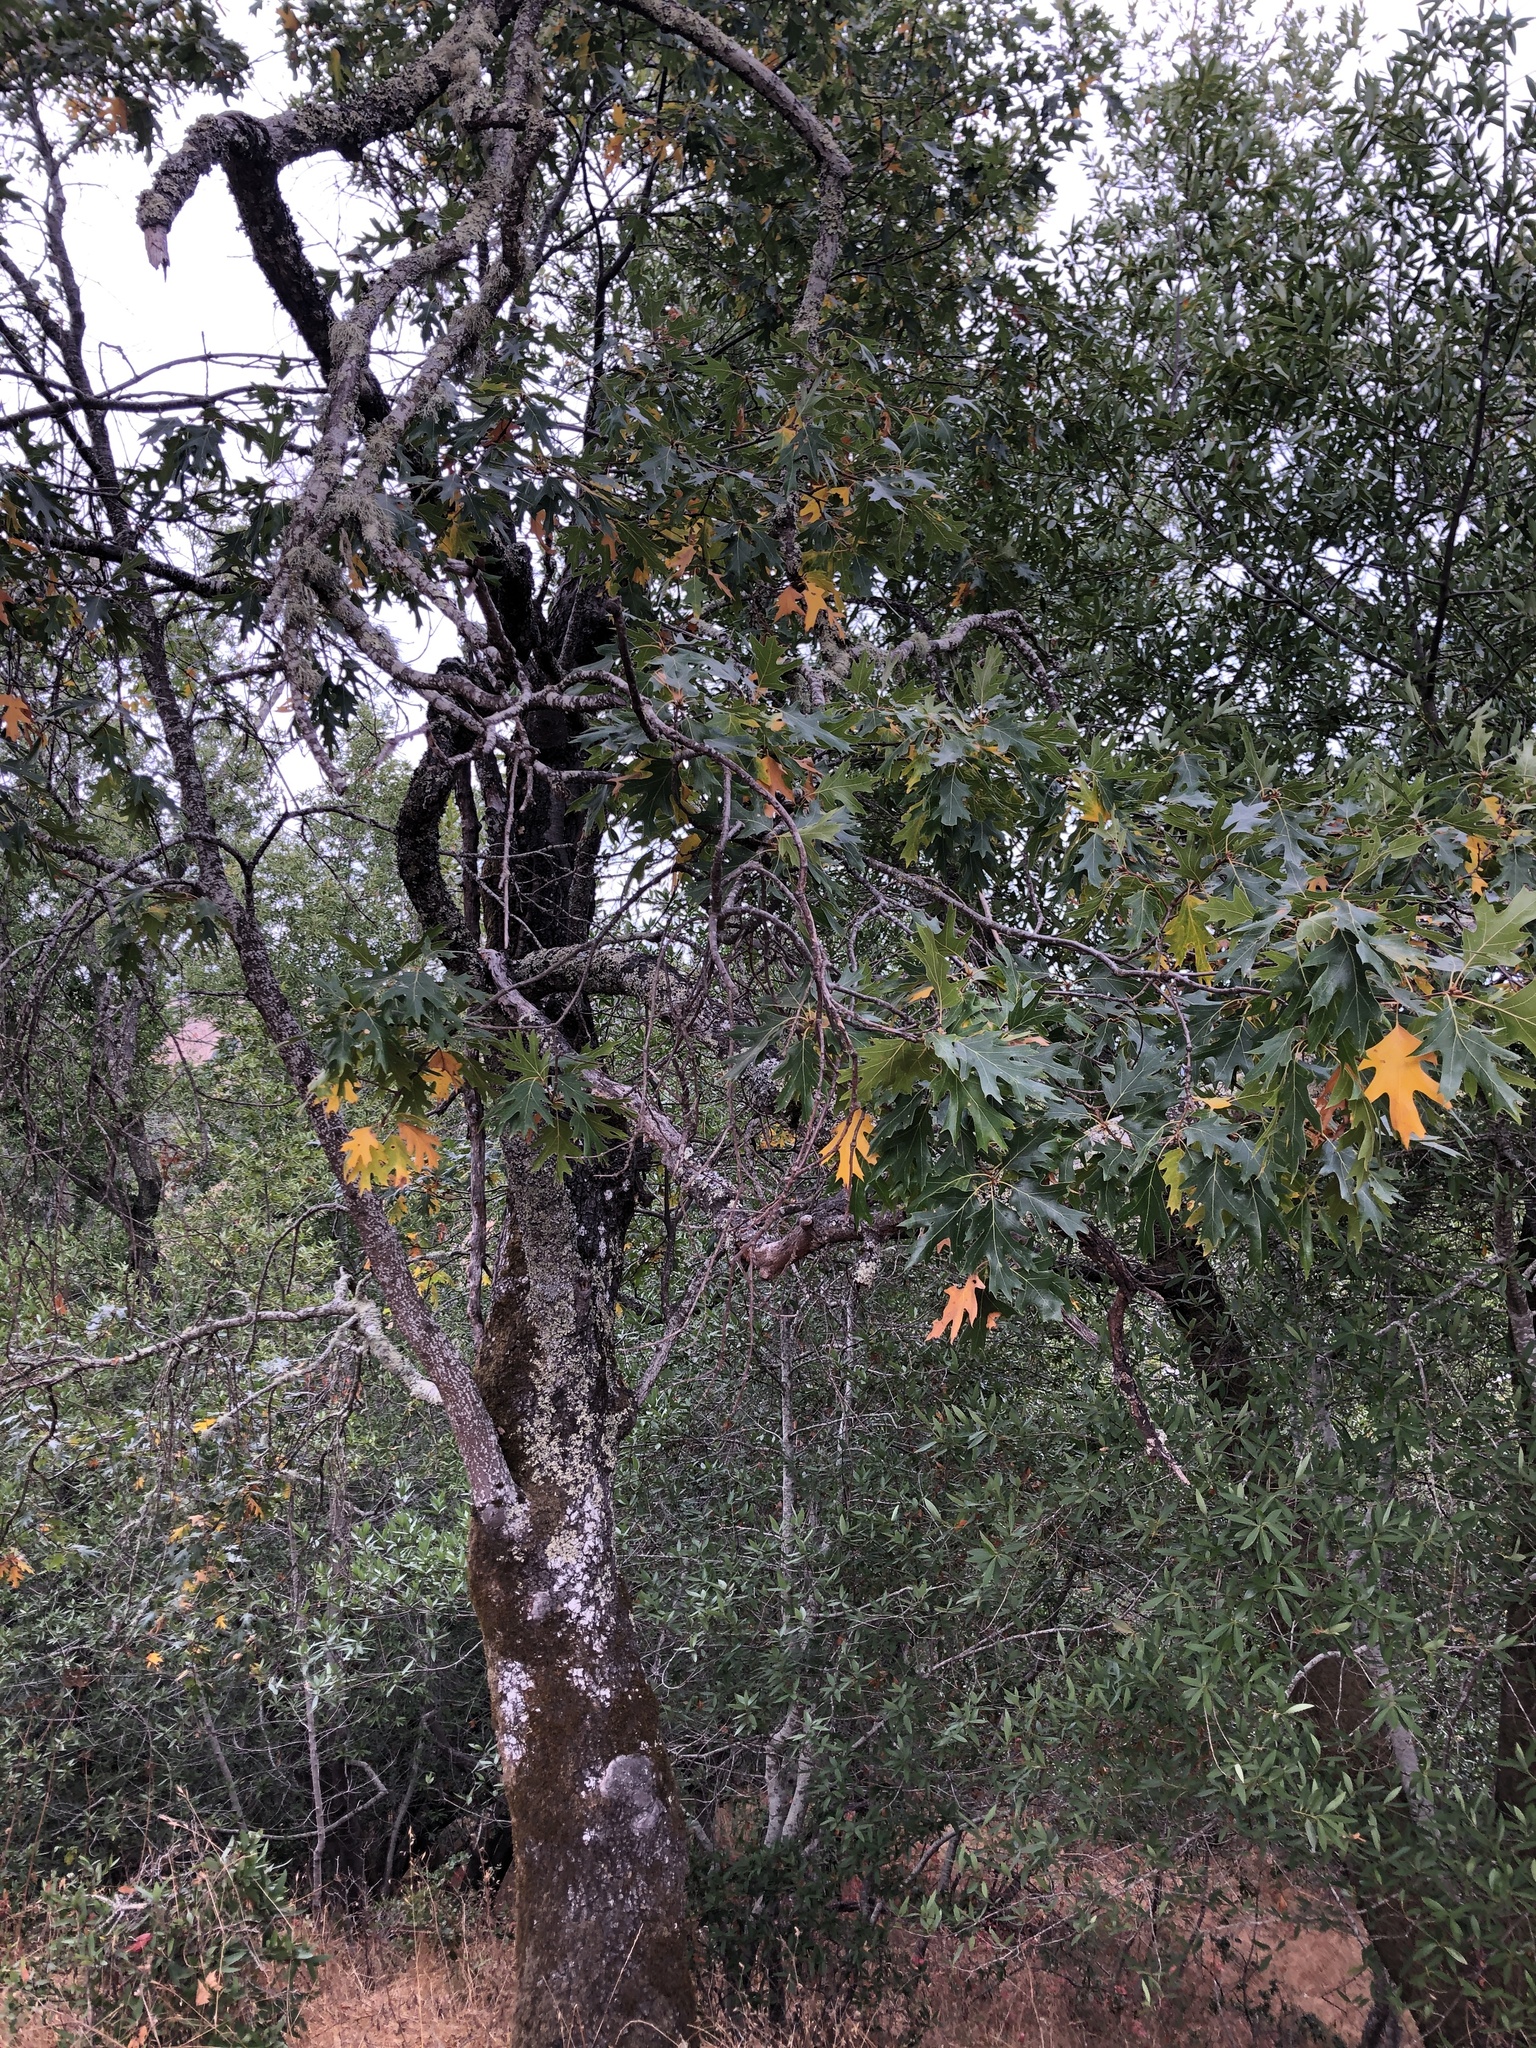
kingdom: Plantae
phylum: Tracheophyta
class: Magnoliopsida
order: Fagales
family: Fagaceae
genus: Quercus
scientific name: Quercus kelloggii
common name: California black oak
